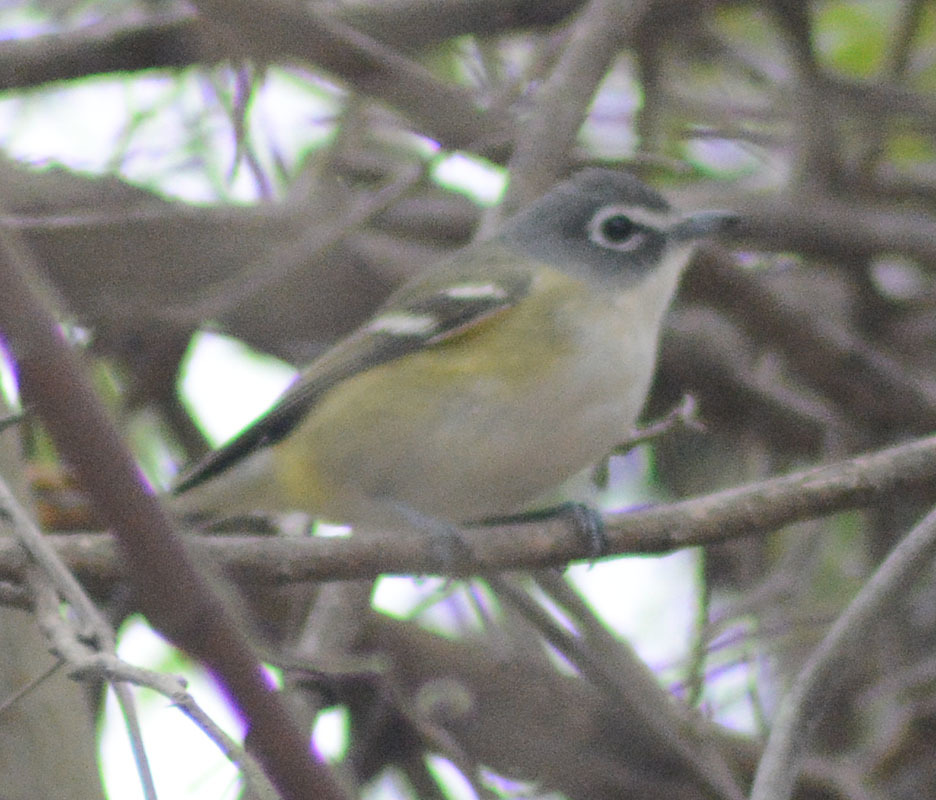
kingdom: Animalia
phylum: Chordata
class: Aves
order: Passeriformes
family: Vireonidae
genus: Vireo
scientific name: Vireo solitarius
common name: Blue-headed vireo
